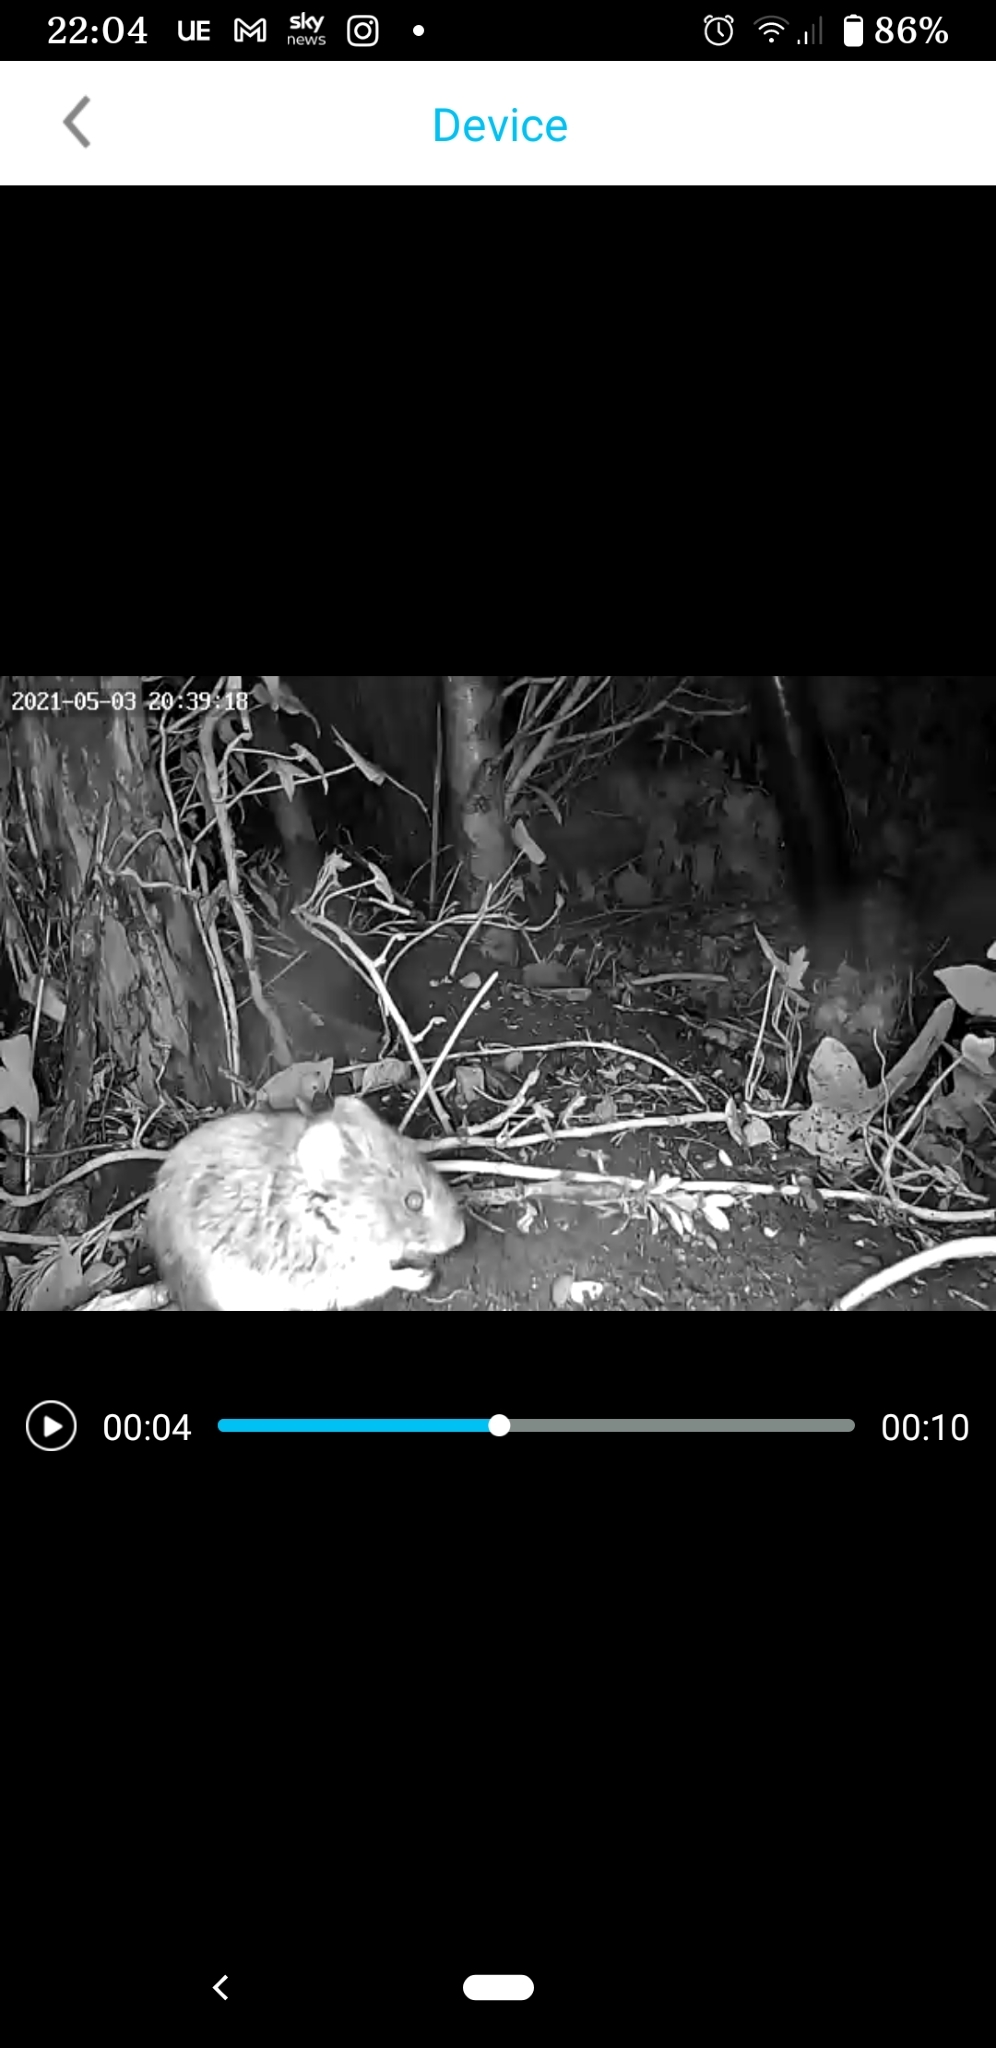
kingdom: Animalia
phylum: Chordata
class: Mammalia
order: Rodentia
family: Muridae
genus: Apodemus
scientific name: Apodemus sylvaticus
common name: Wood mouse
